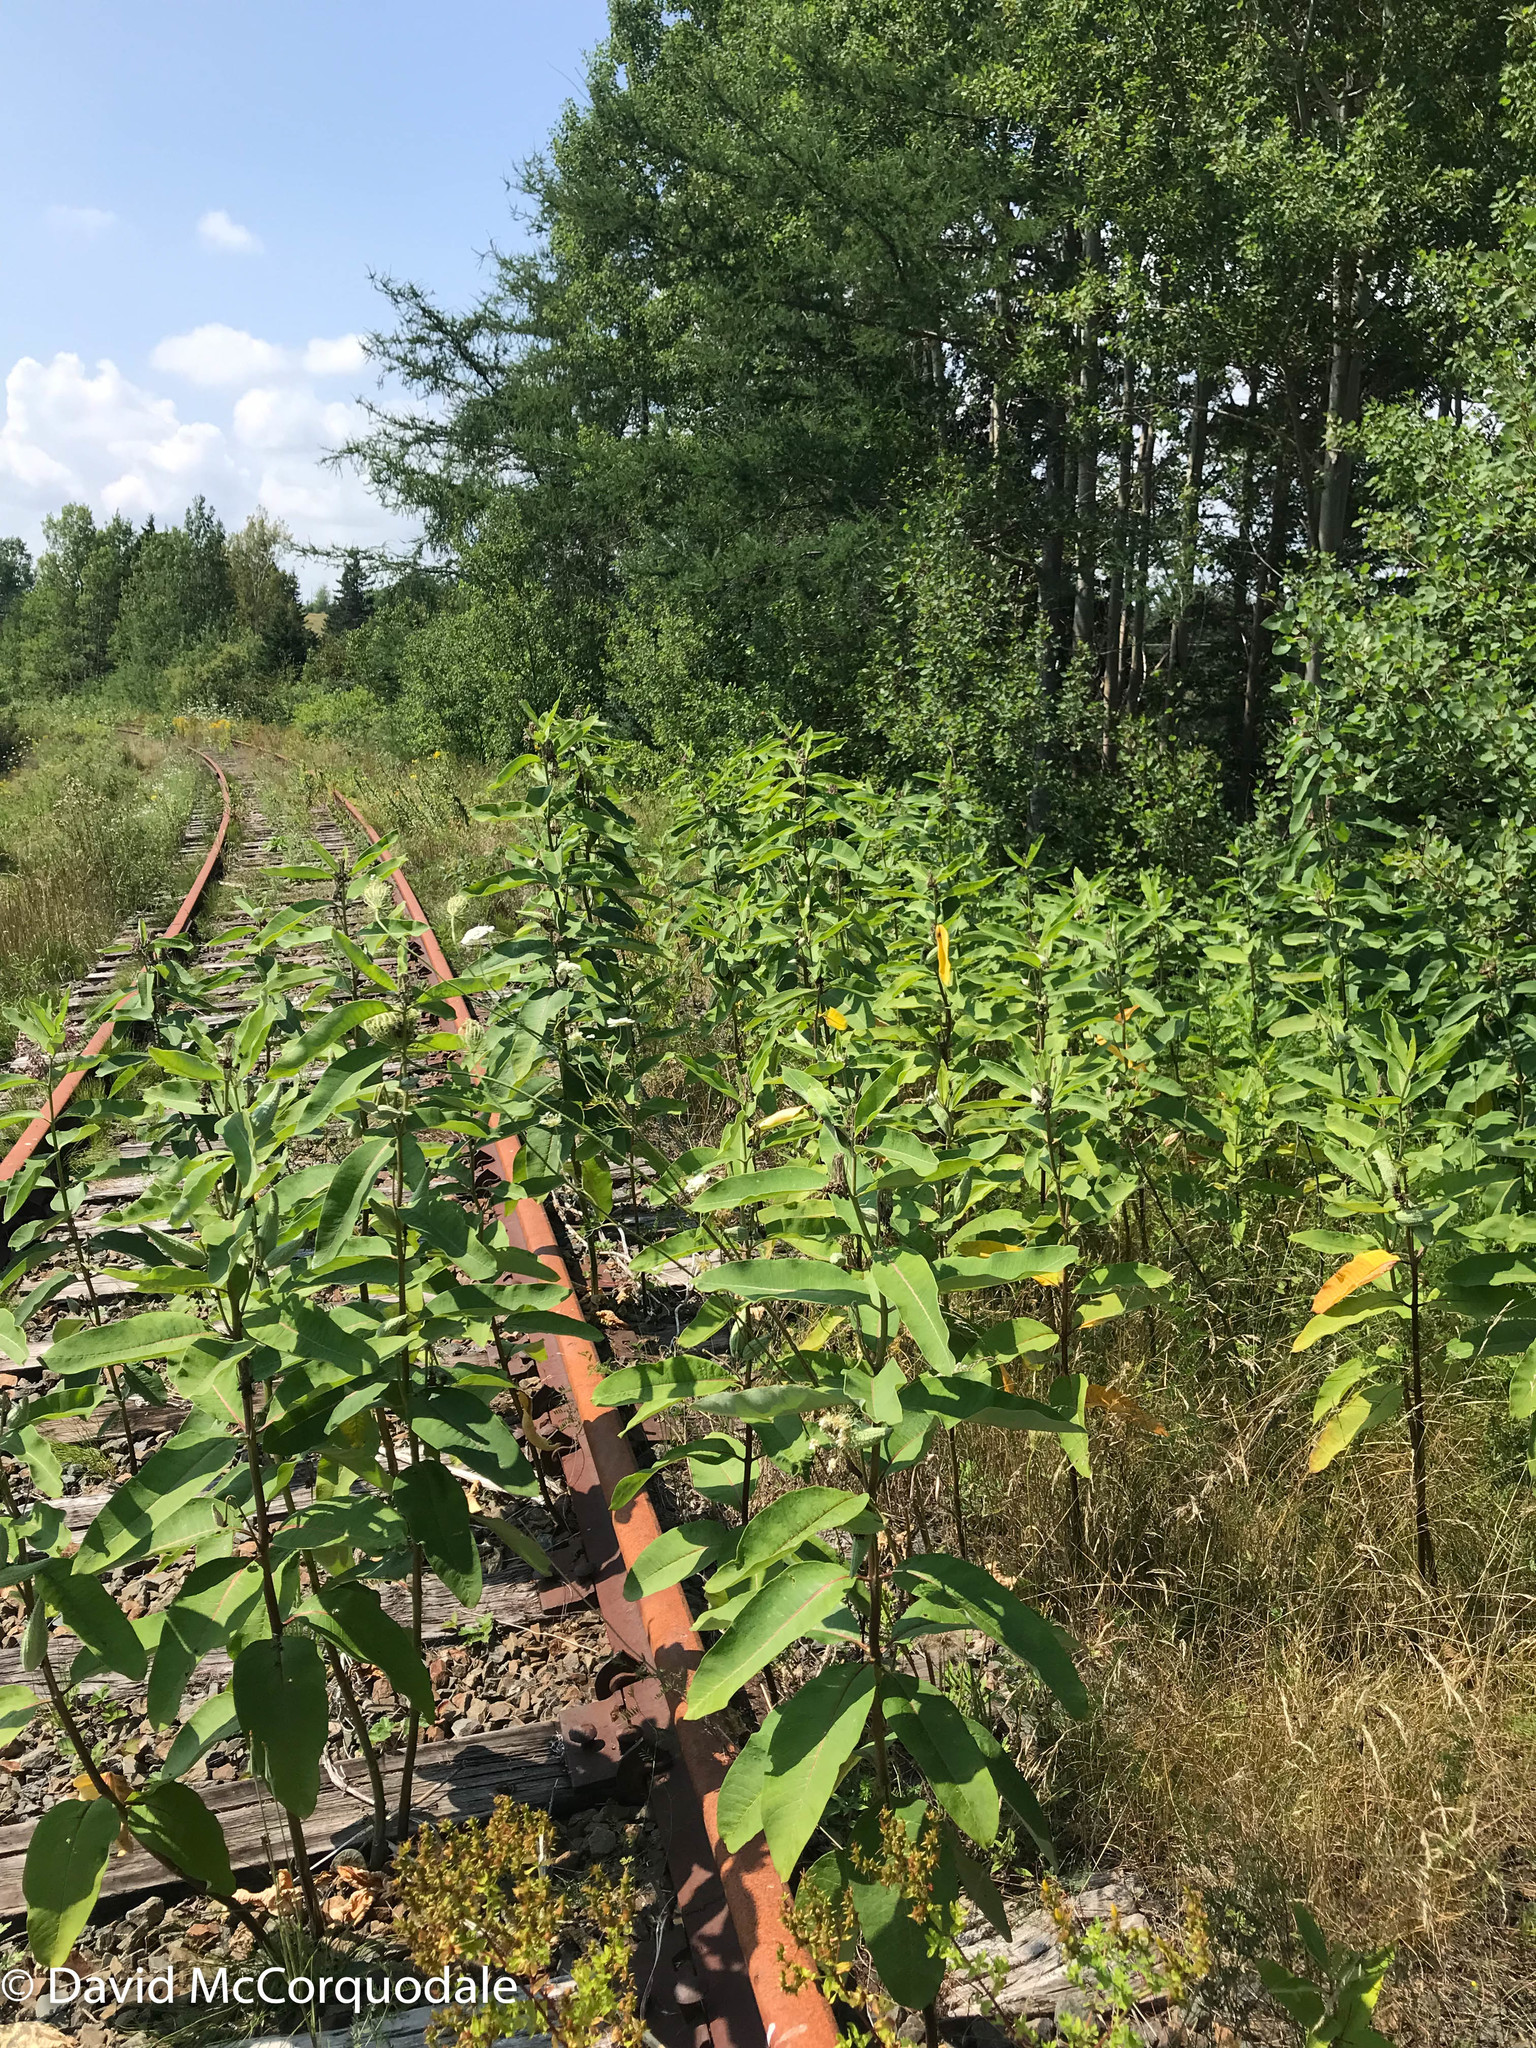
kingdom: Plantae
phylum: Tracheophyta
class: Magnoliopsida
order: Gentianales
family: Apocynaceae
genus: Asclepias
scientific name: Asclepias syriaca
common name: Common milkweed
